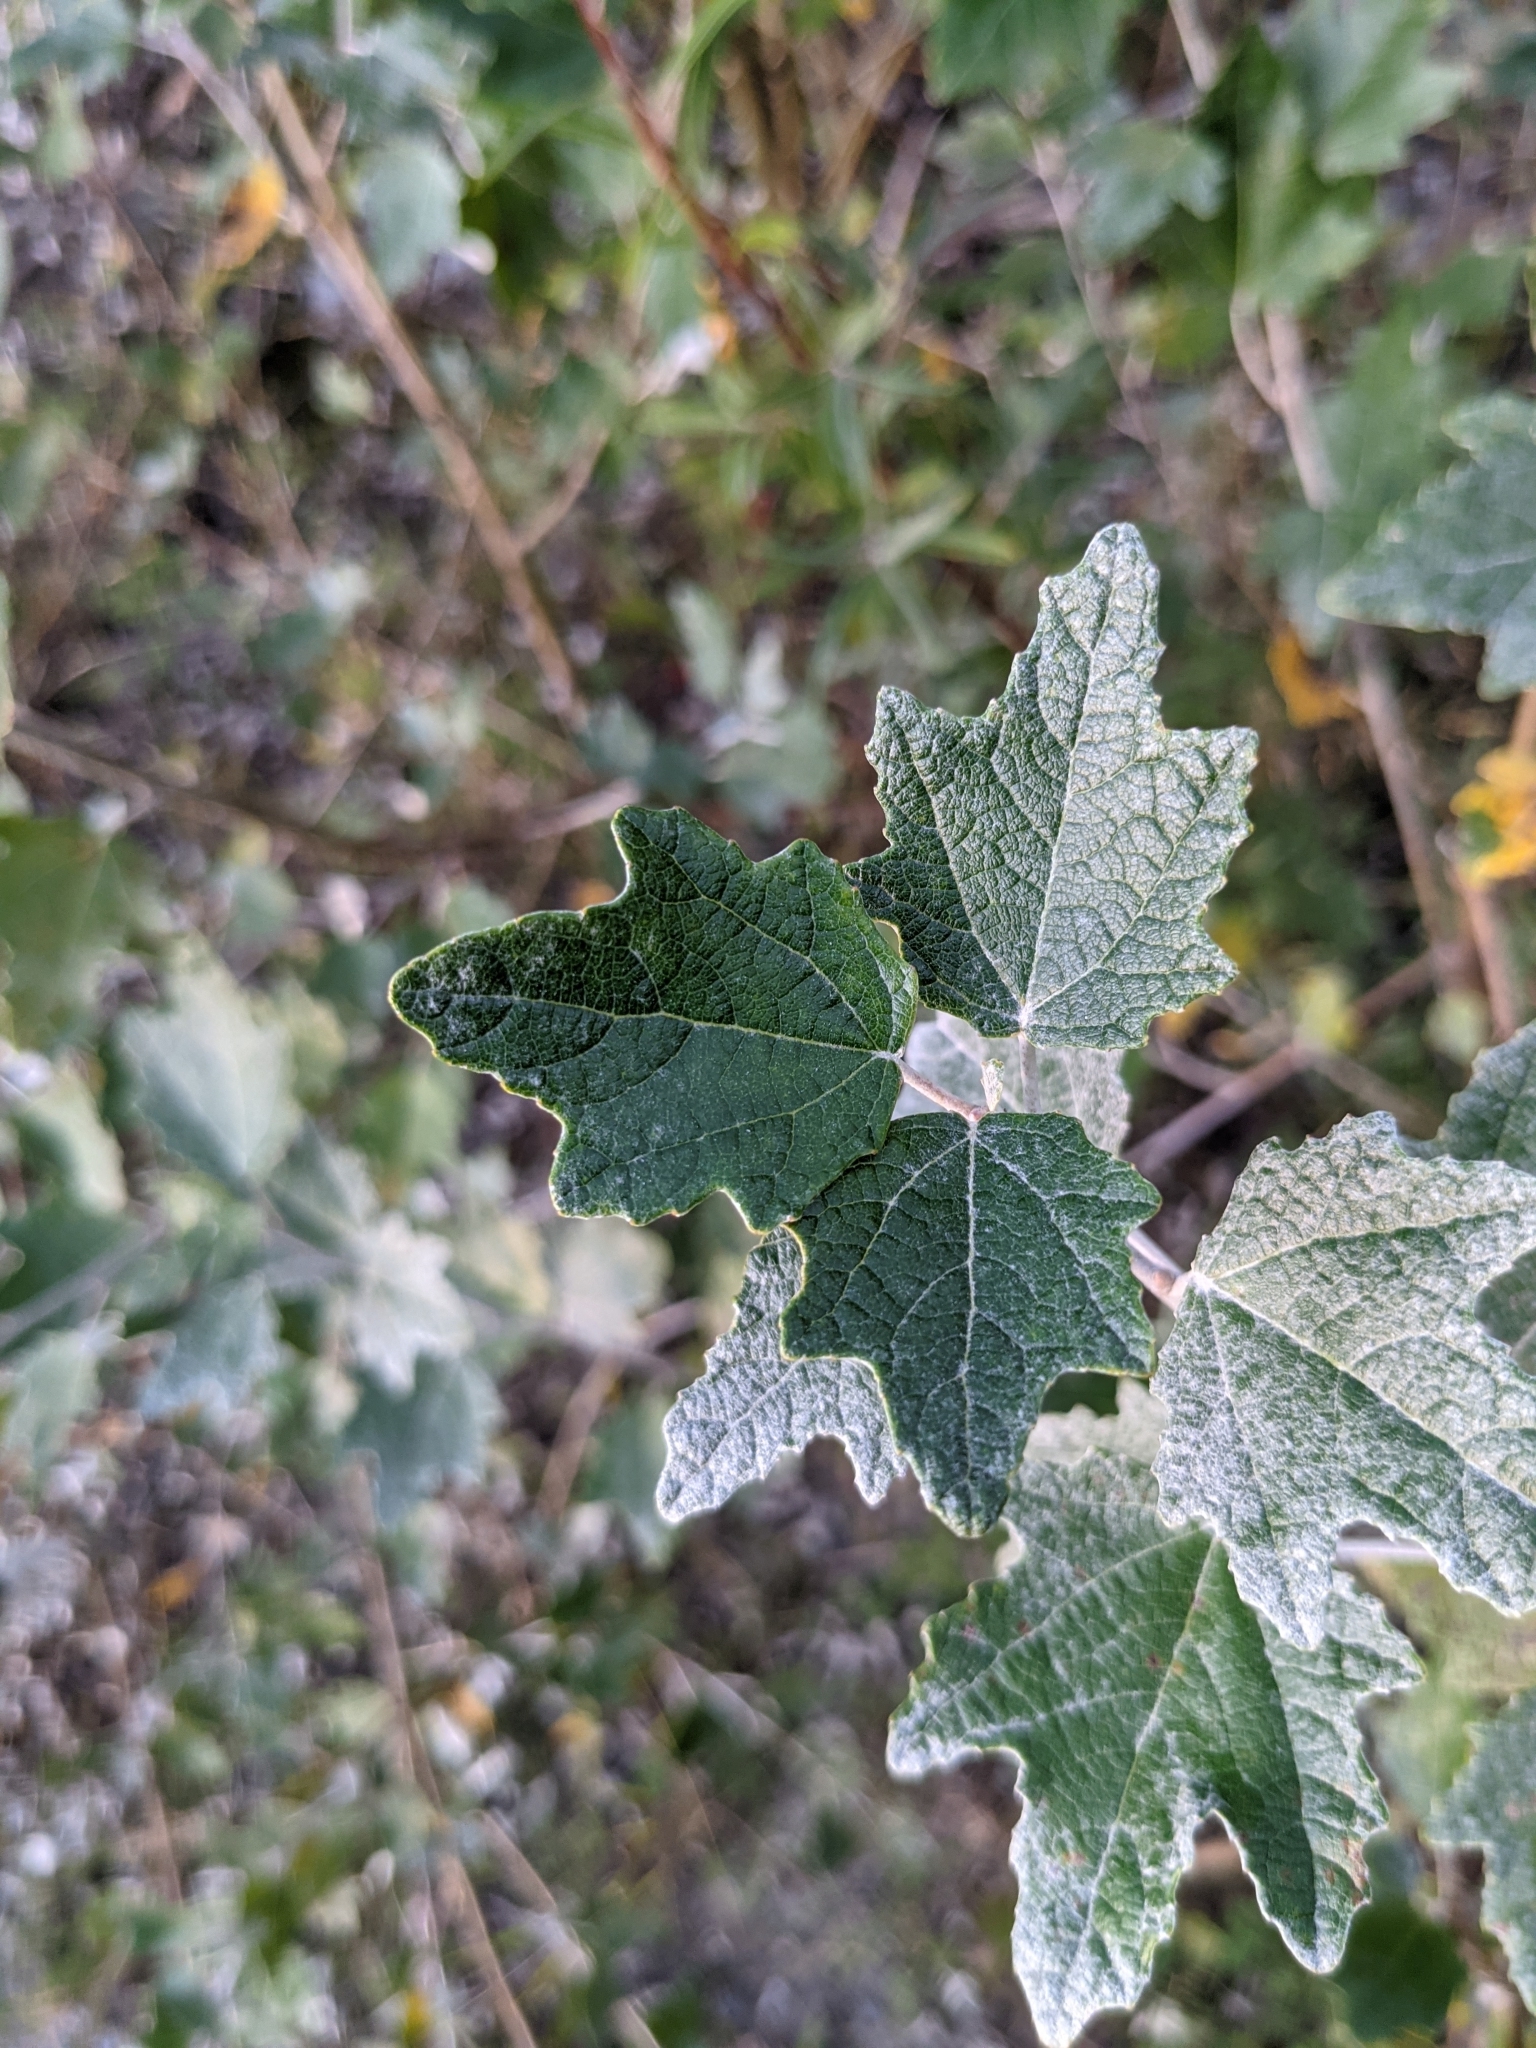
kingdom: Plantae
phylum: Tracheophyta
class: Magnoliopsida
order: Malpighiales
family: Salicaceae
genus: Populus
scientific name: Populus alba
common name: White poplar
